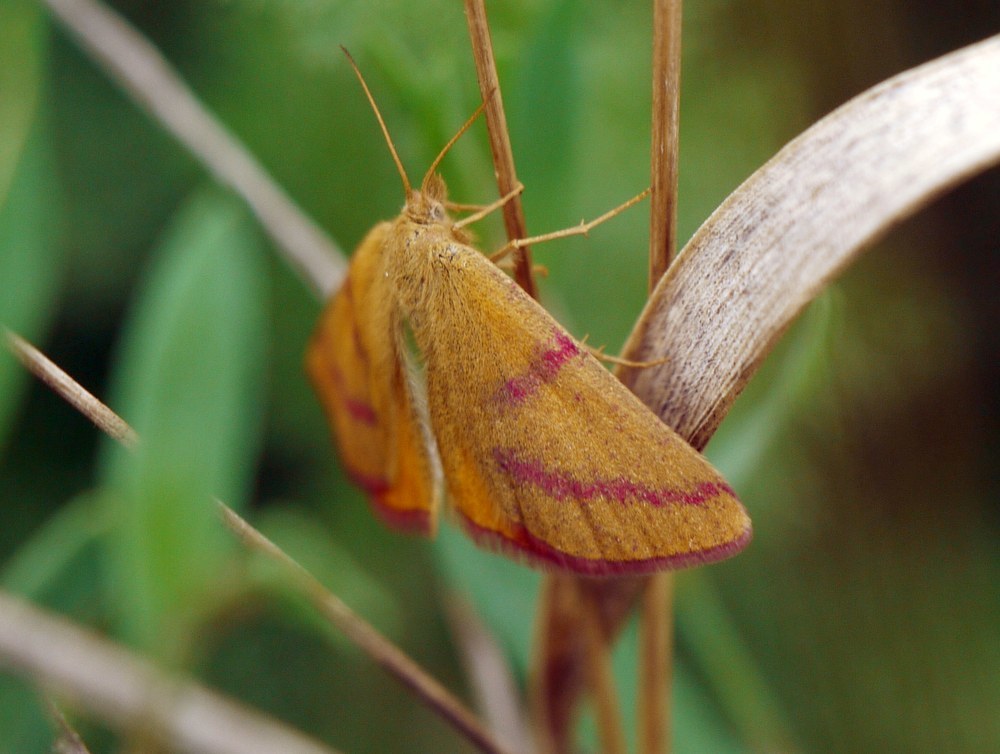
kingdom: Animalia
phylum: Arthropoda
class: Insecta
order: Lepidoptera
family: Geometridae
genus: Lythria
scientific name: Lythria purpuraria
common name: Purple-barred yellow
